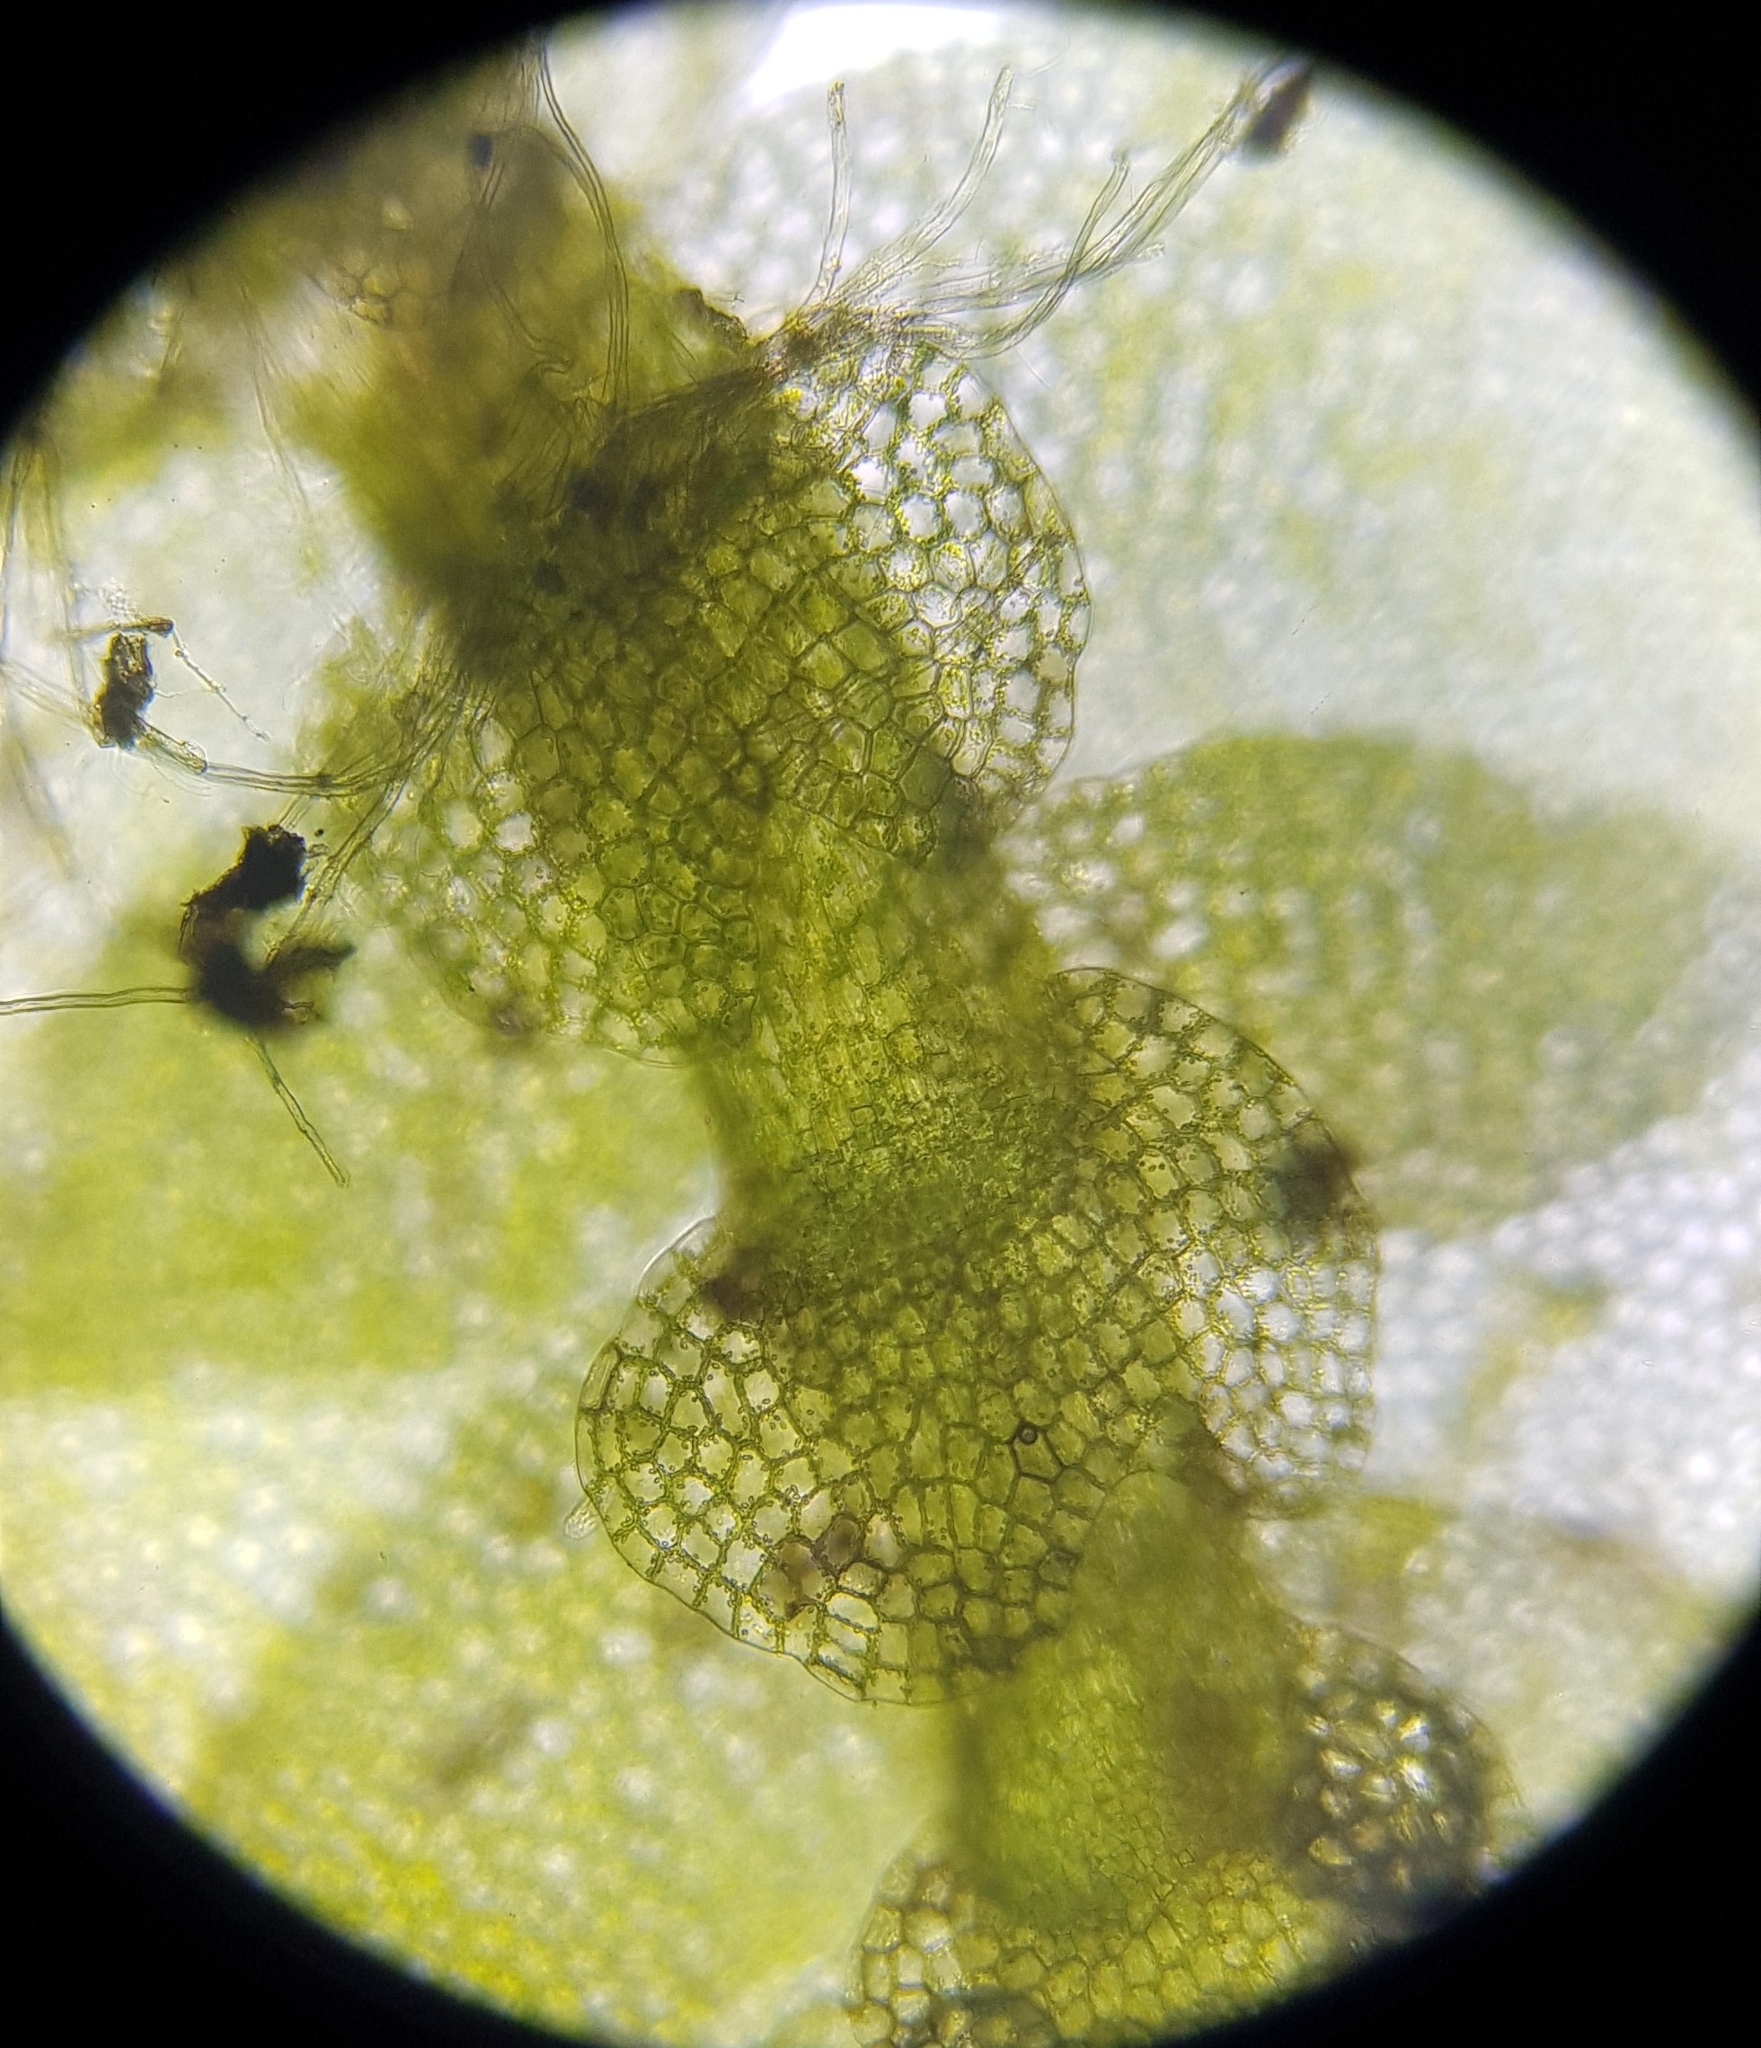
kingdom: Plantae
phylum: Marchantiophyta
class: Jungermanniopsida
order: Jungermanniales
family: Calypogeiaceae
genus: Calypogeia
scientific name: Calypogeia muelleriana
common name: Mueller s pouchwort
